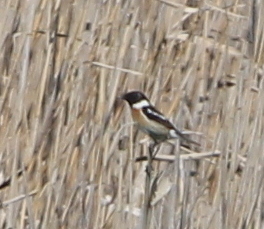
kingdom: Animalia
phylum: Chordata
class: Aves
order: Passeriformes
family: Muscicapidae
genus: Saxicola
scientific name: Saxicola rubicola
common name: European stonechat
